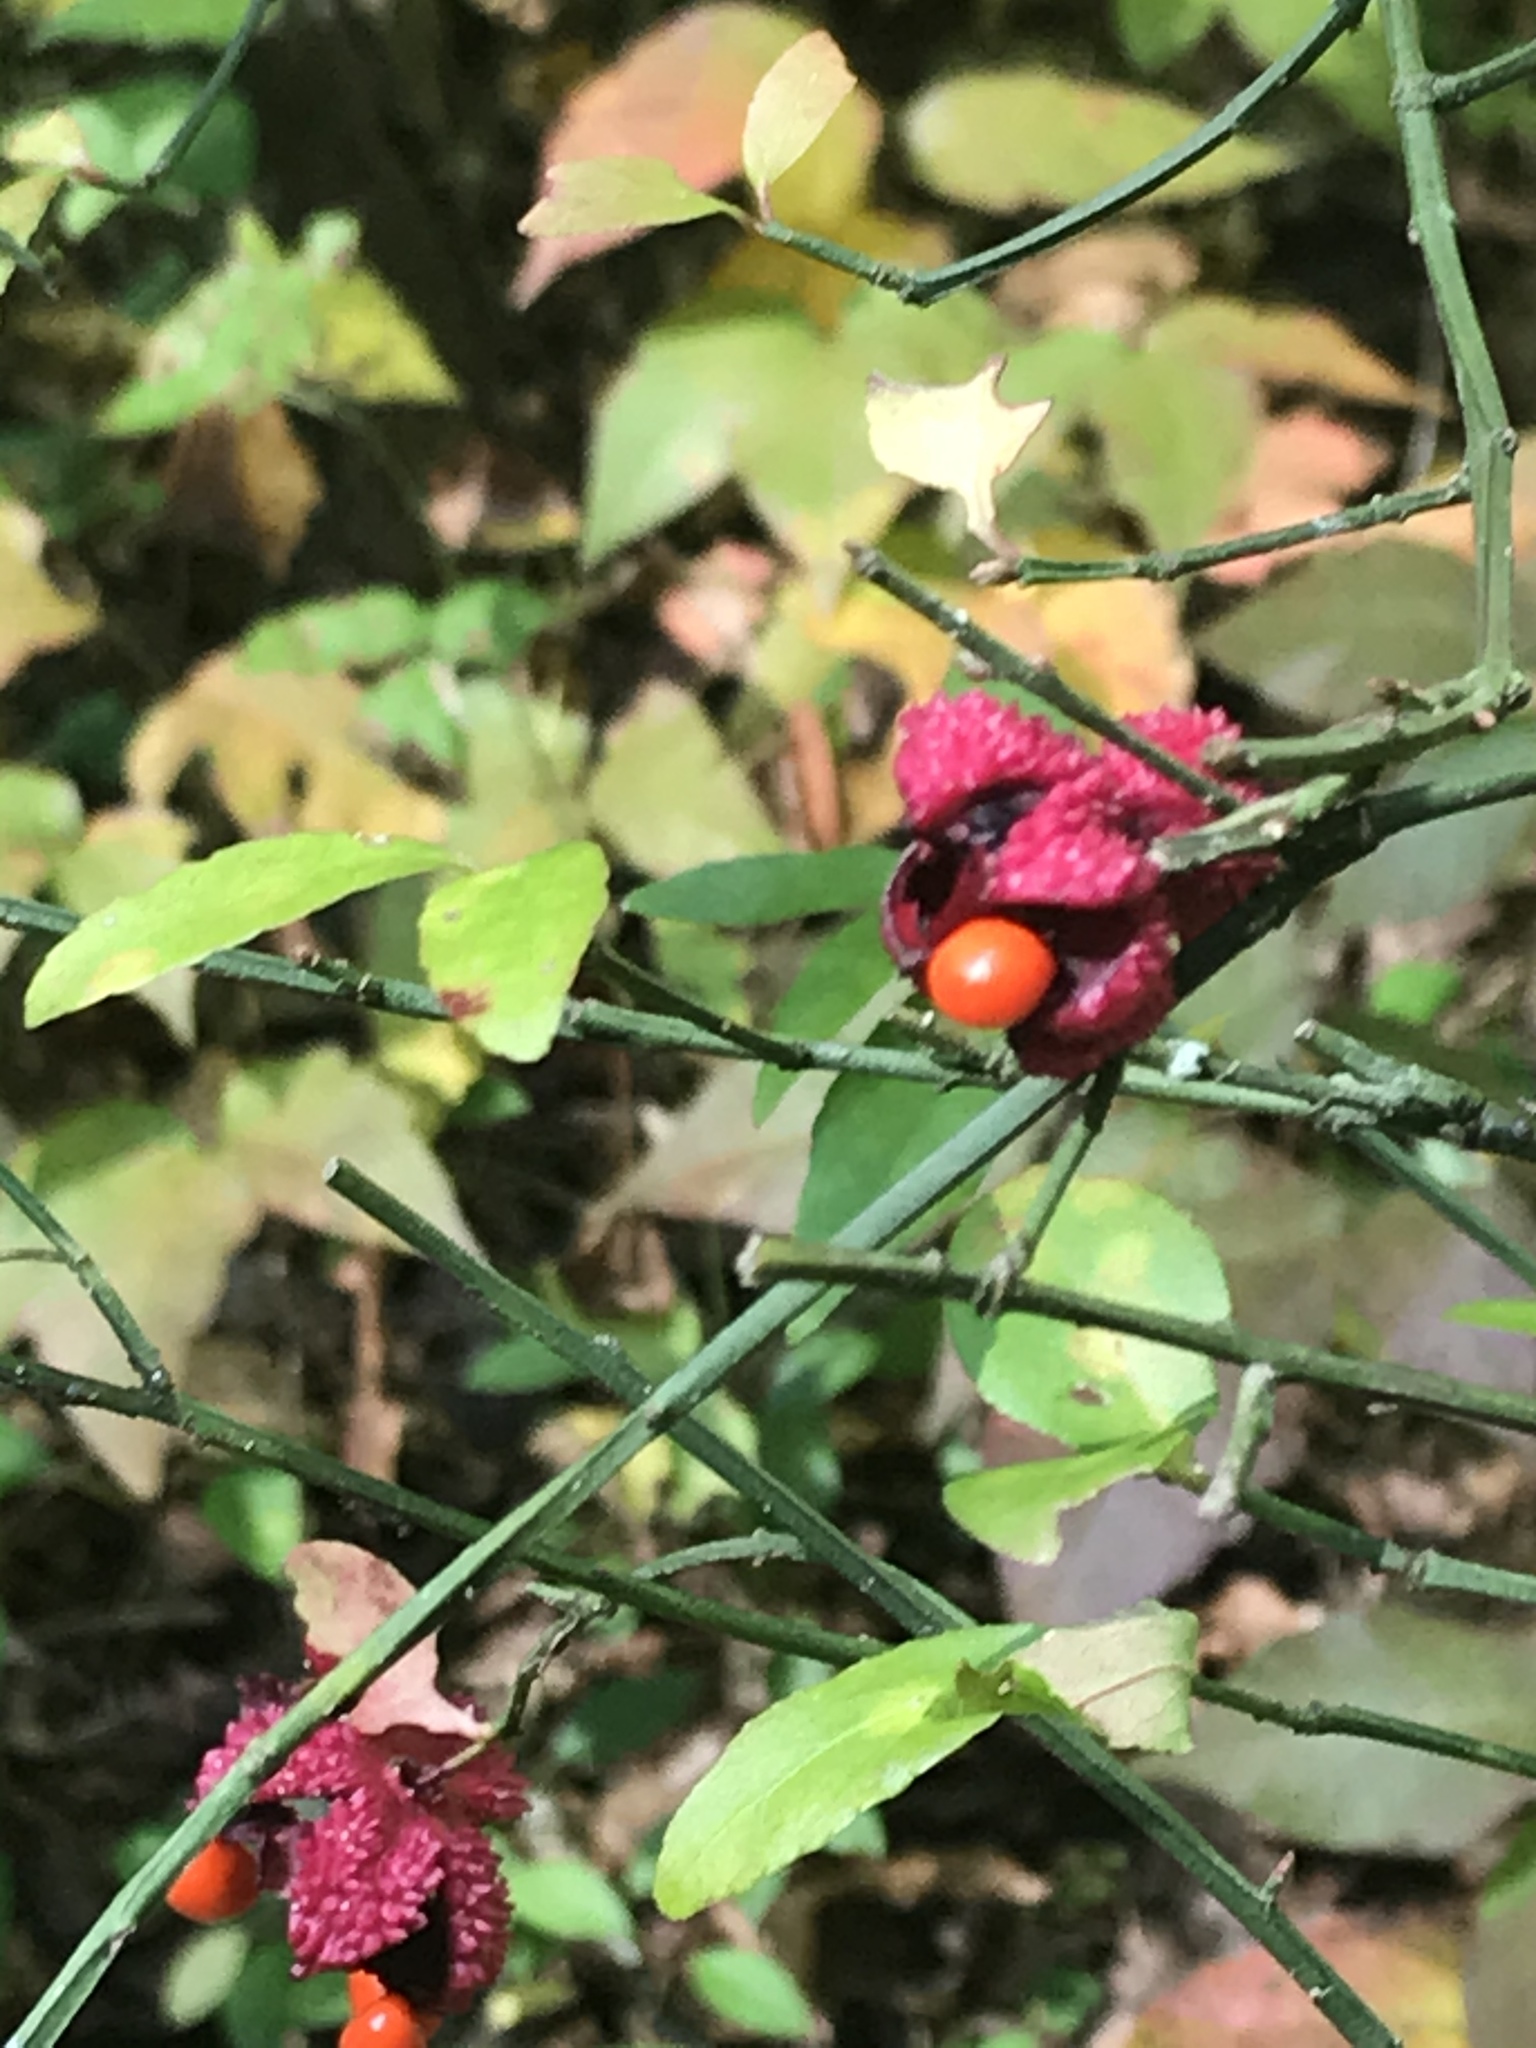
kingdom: Plantae
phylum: Tracheophyta
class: Magnoliopsida
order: Celastrales
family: Celastraceae
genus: Euonymus
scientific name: Euonymus americanus
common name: Bursting-heart
